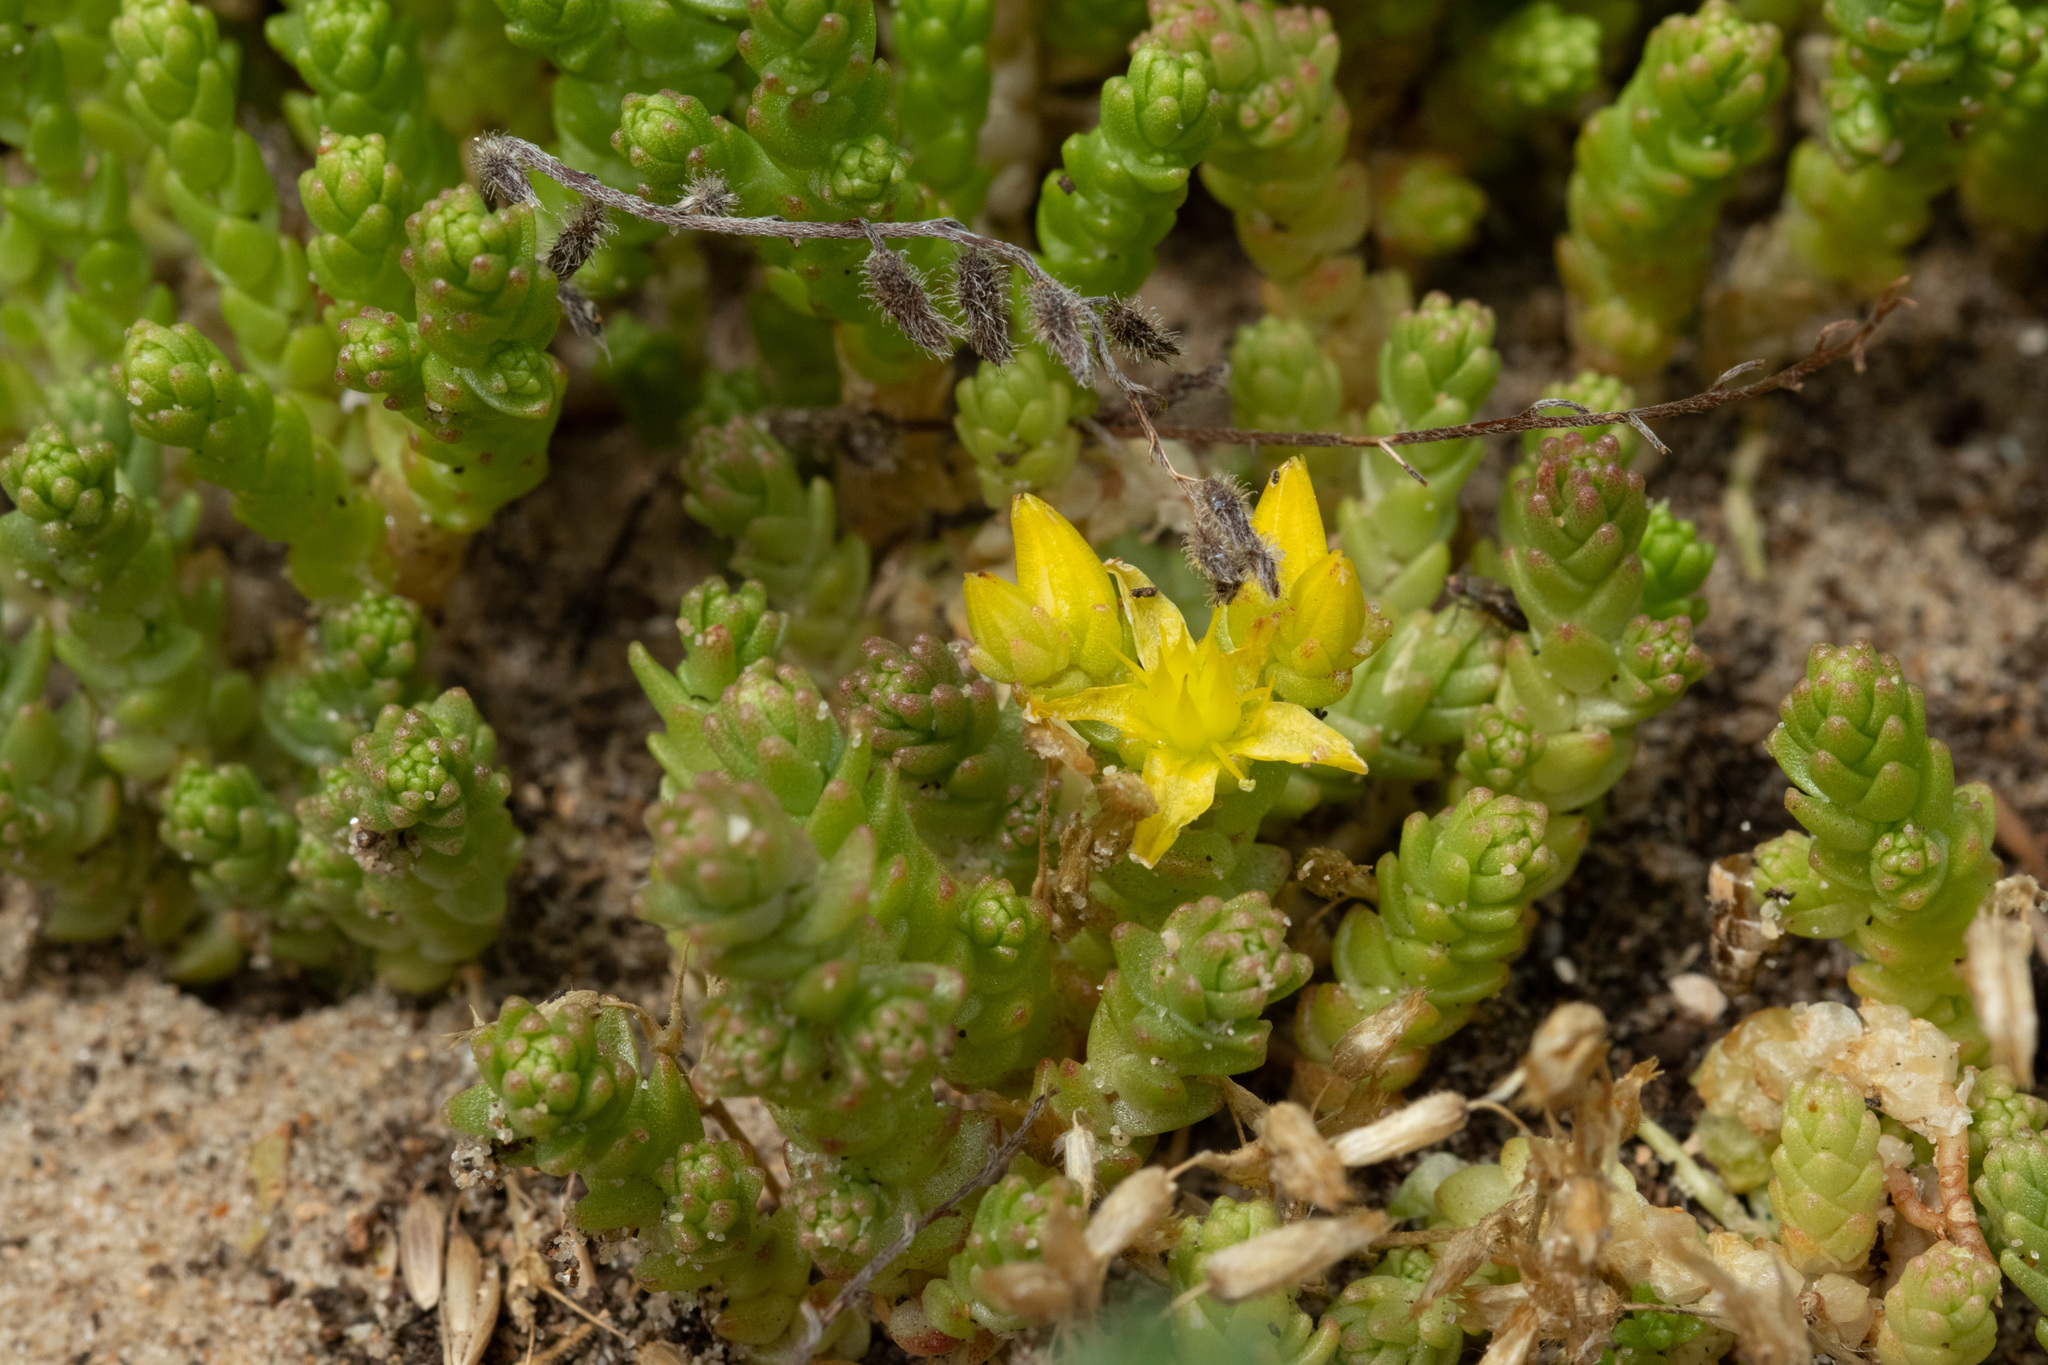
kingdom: Plantae
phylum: Tracheophyta
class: Magnoliopsida
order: Saxifragales
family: Crassulaceae
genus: Sedum
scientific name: Sedum acre
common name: Biting stonecrop
